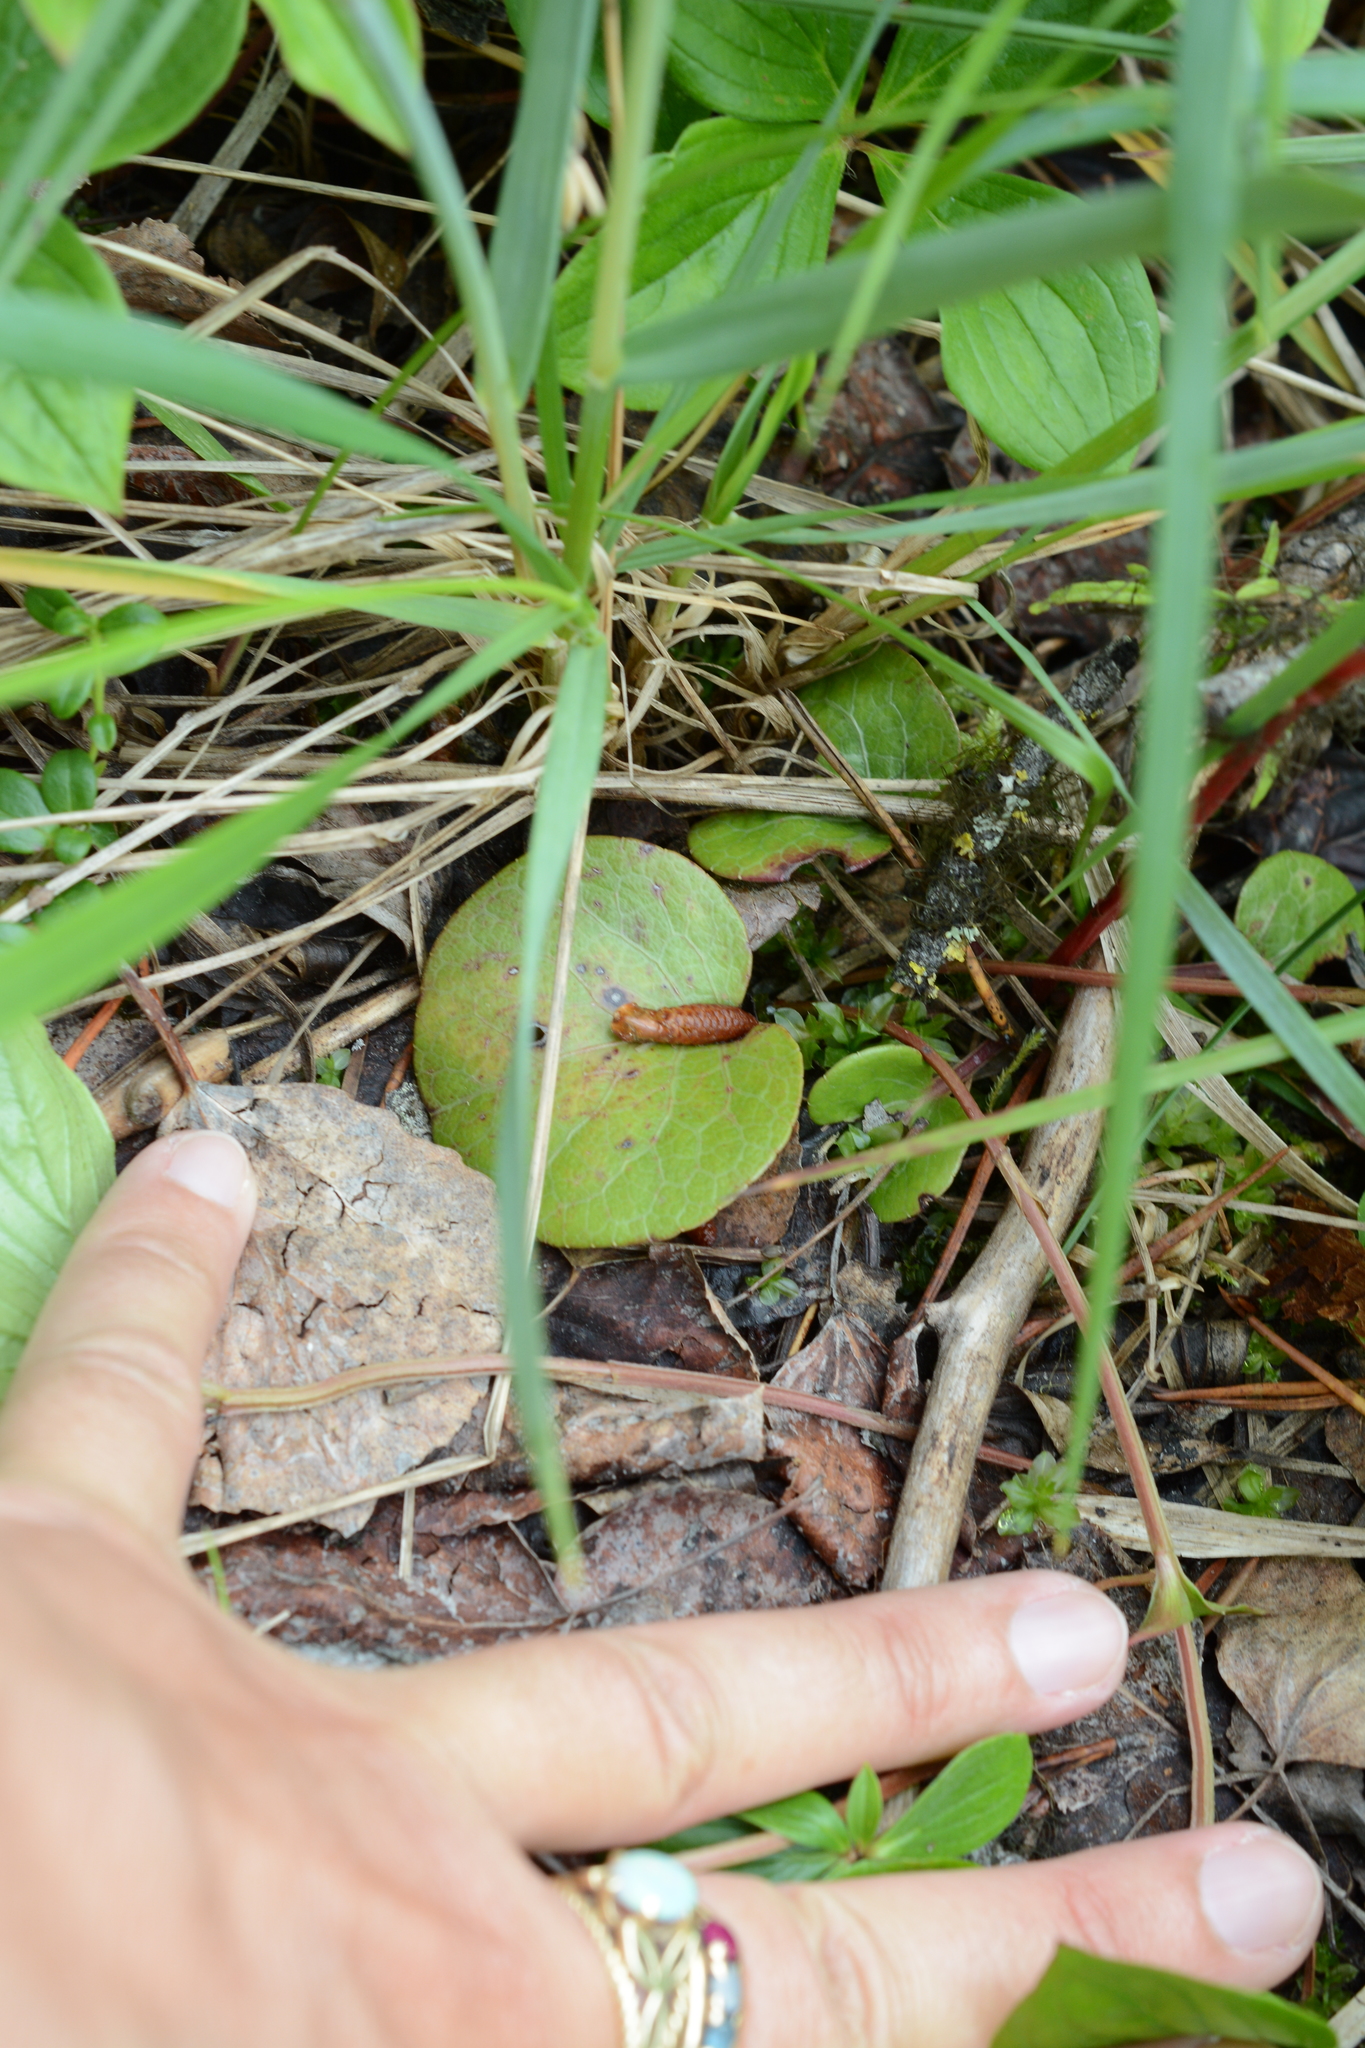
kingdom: Plantae
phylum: Tracheophyta
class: Magnoliopsida
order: Ericales
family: Ericaceae
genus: Pyrola
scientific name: Pyrola asarifolia
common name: Bog wintergreen
